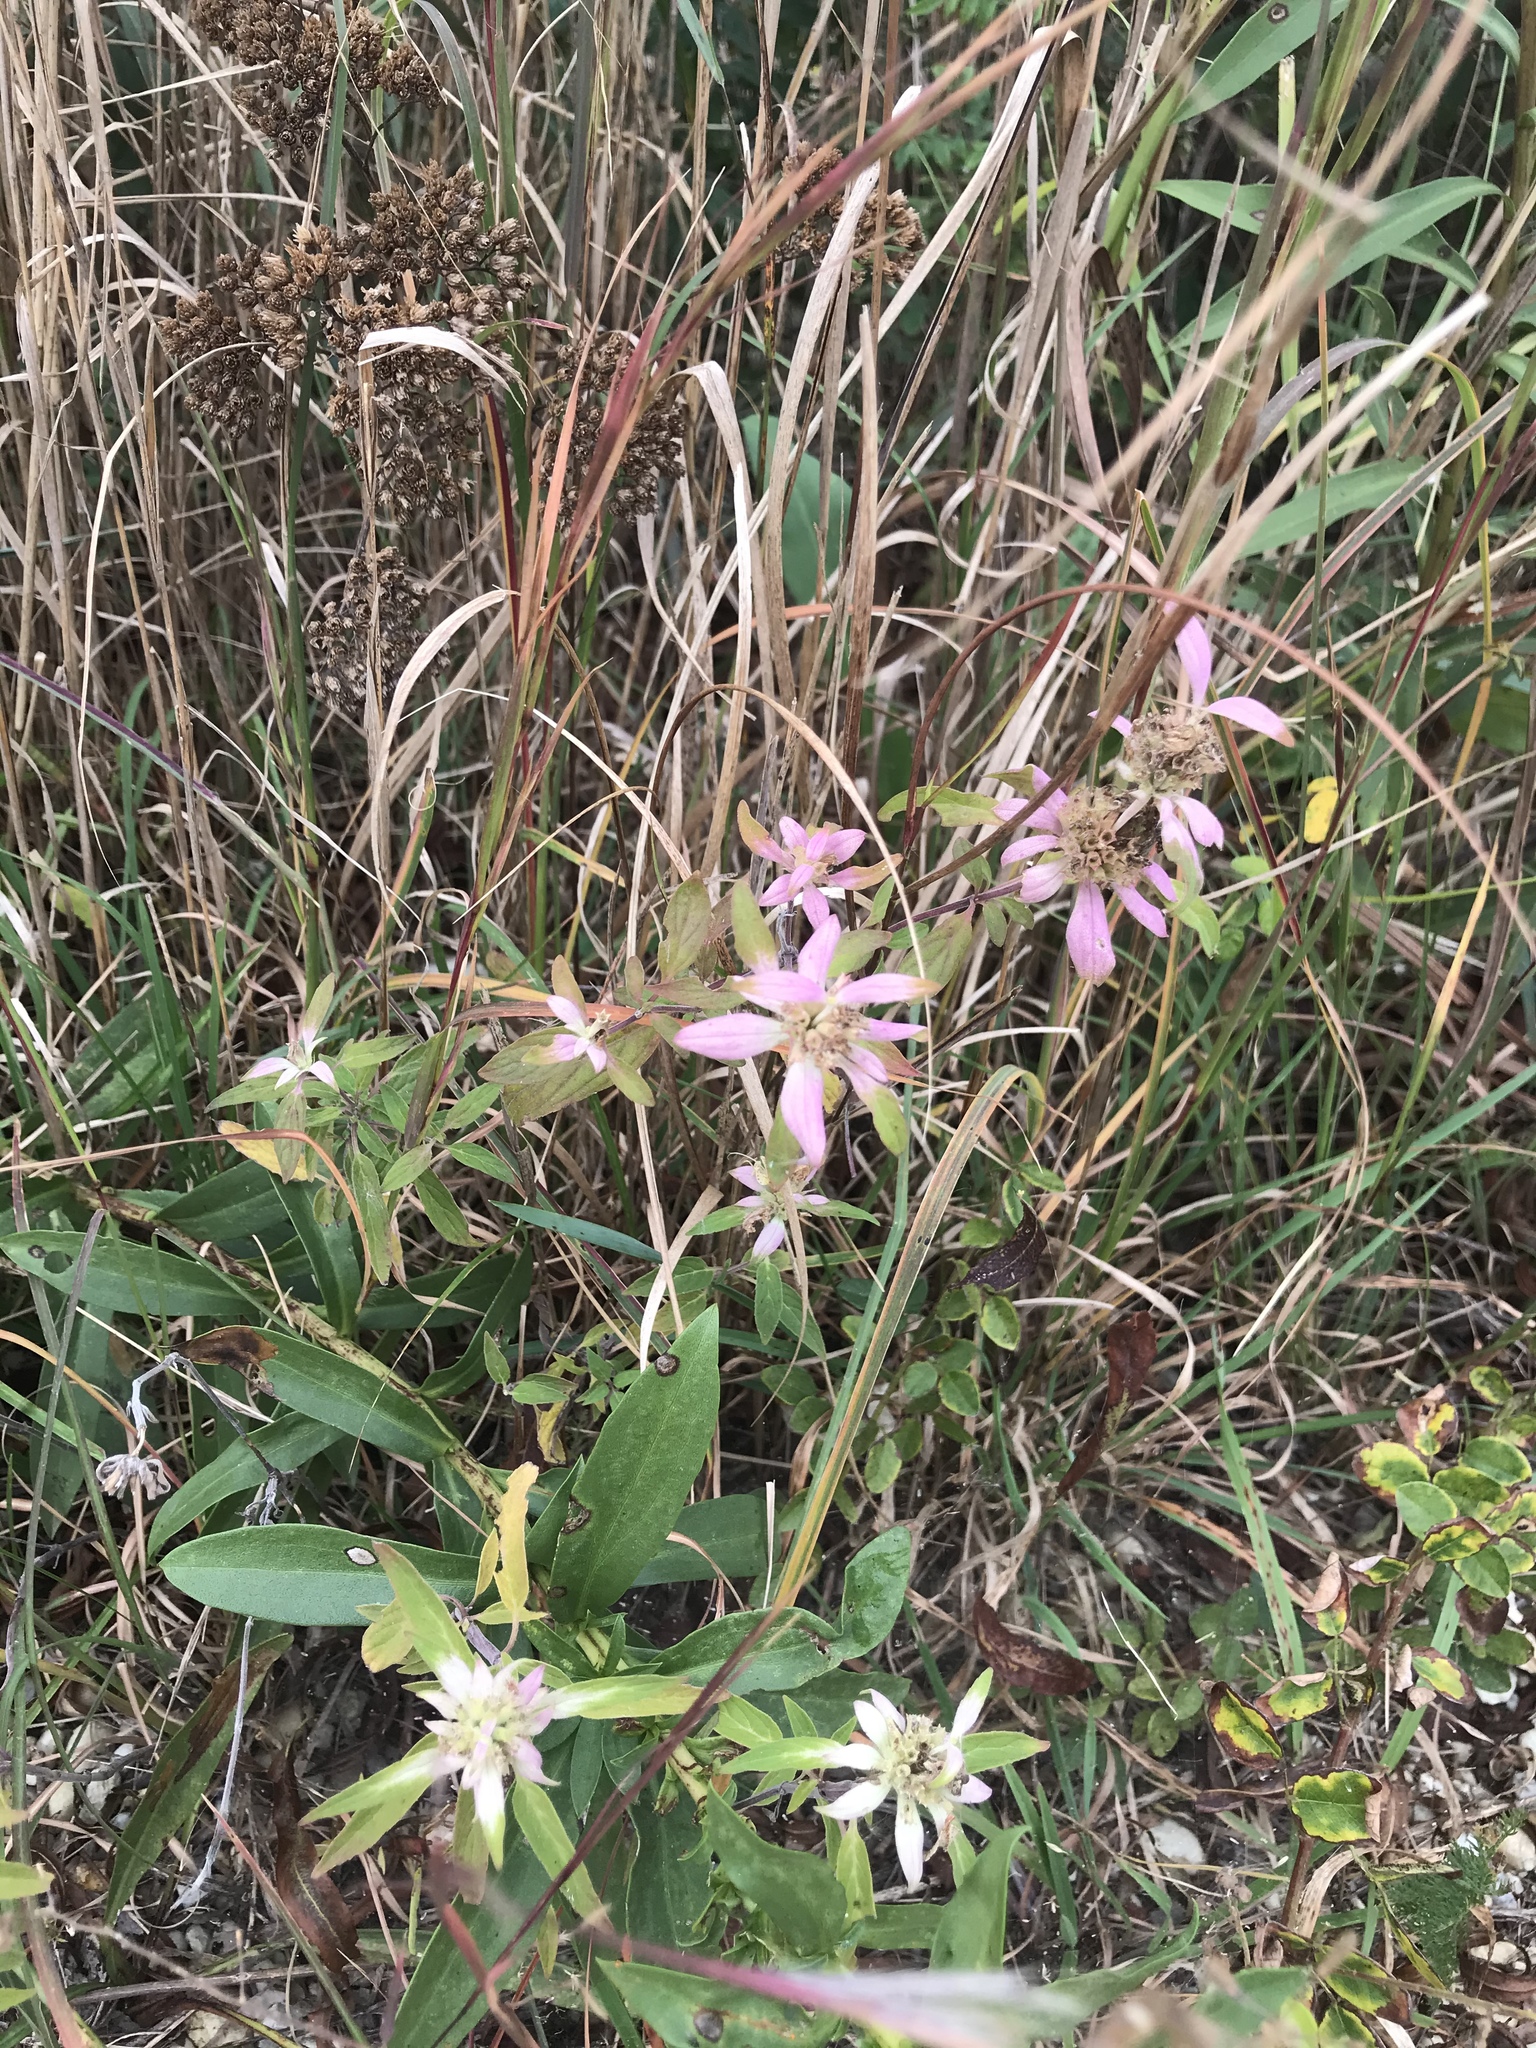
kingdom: Plantae
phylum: Tracheophyta
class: Magnoliopsida
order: Lamiales
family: Lamiaceae
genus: Monarda
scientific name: Monarda punctata
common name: Dotted monarda
